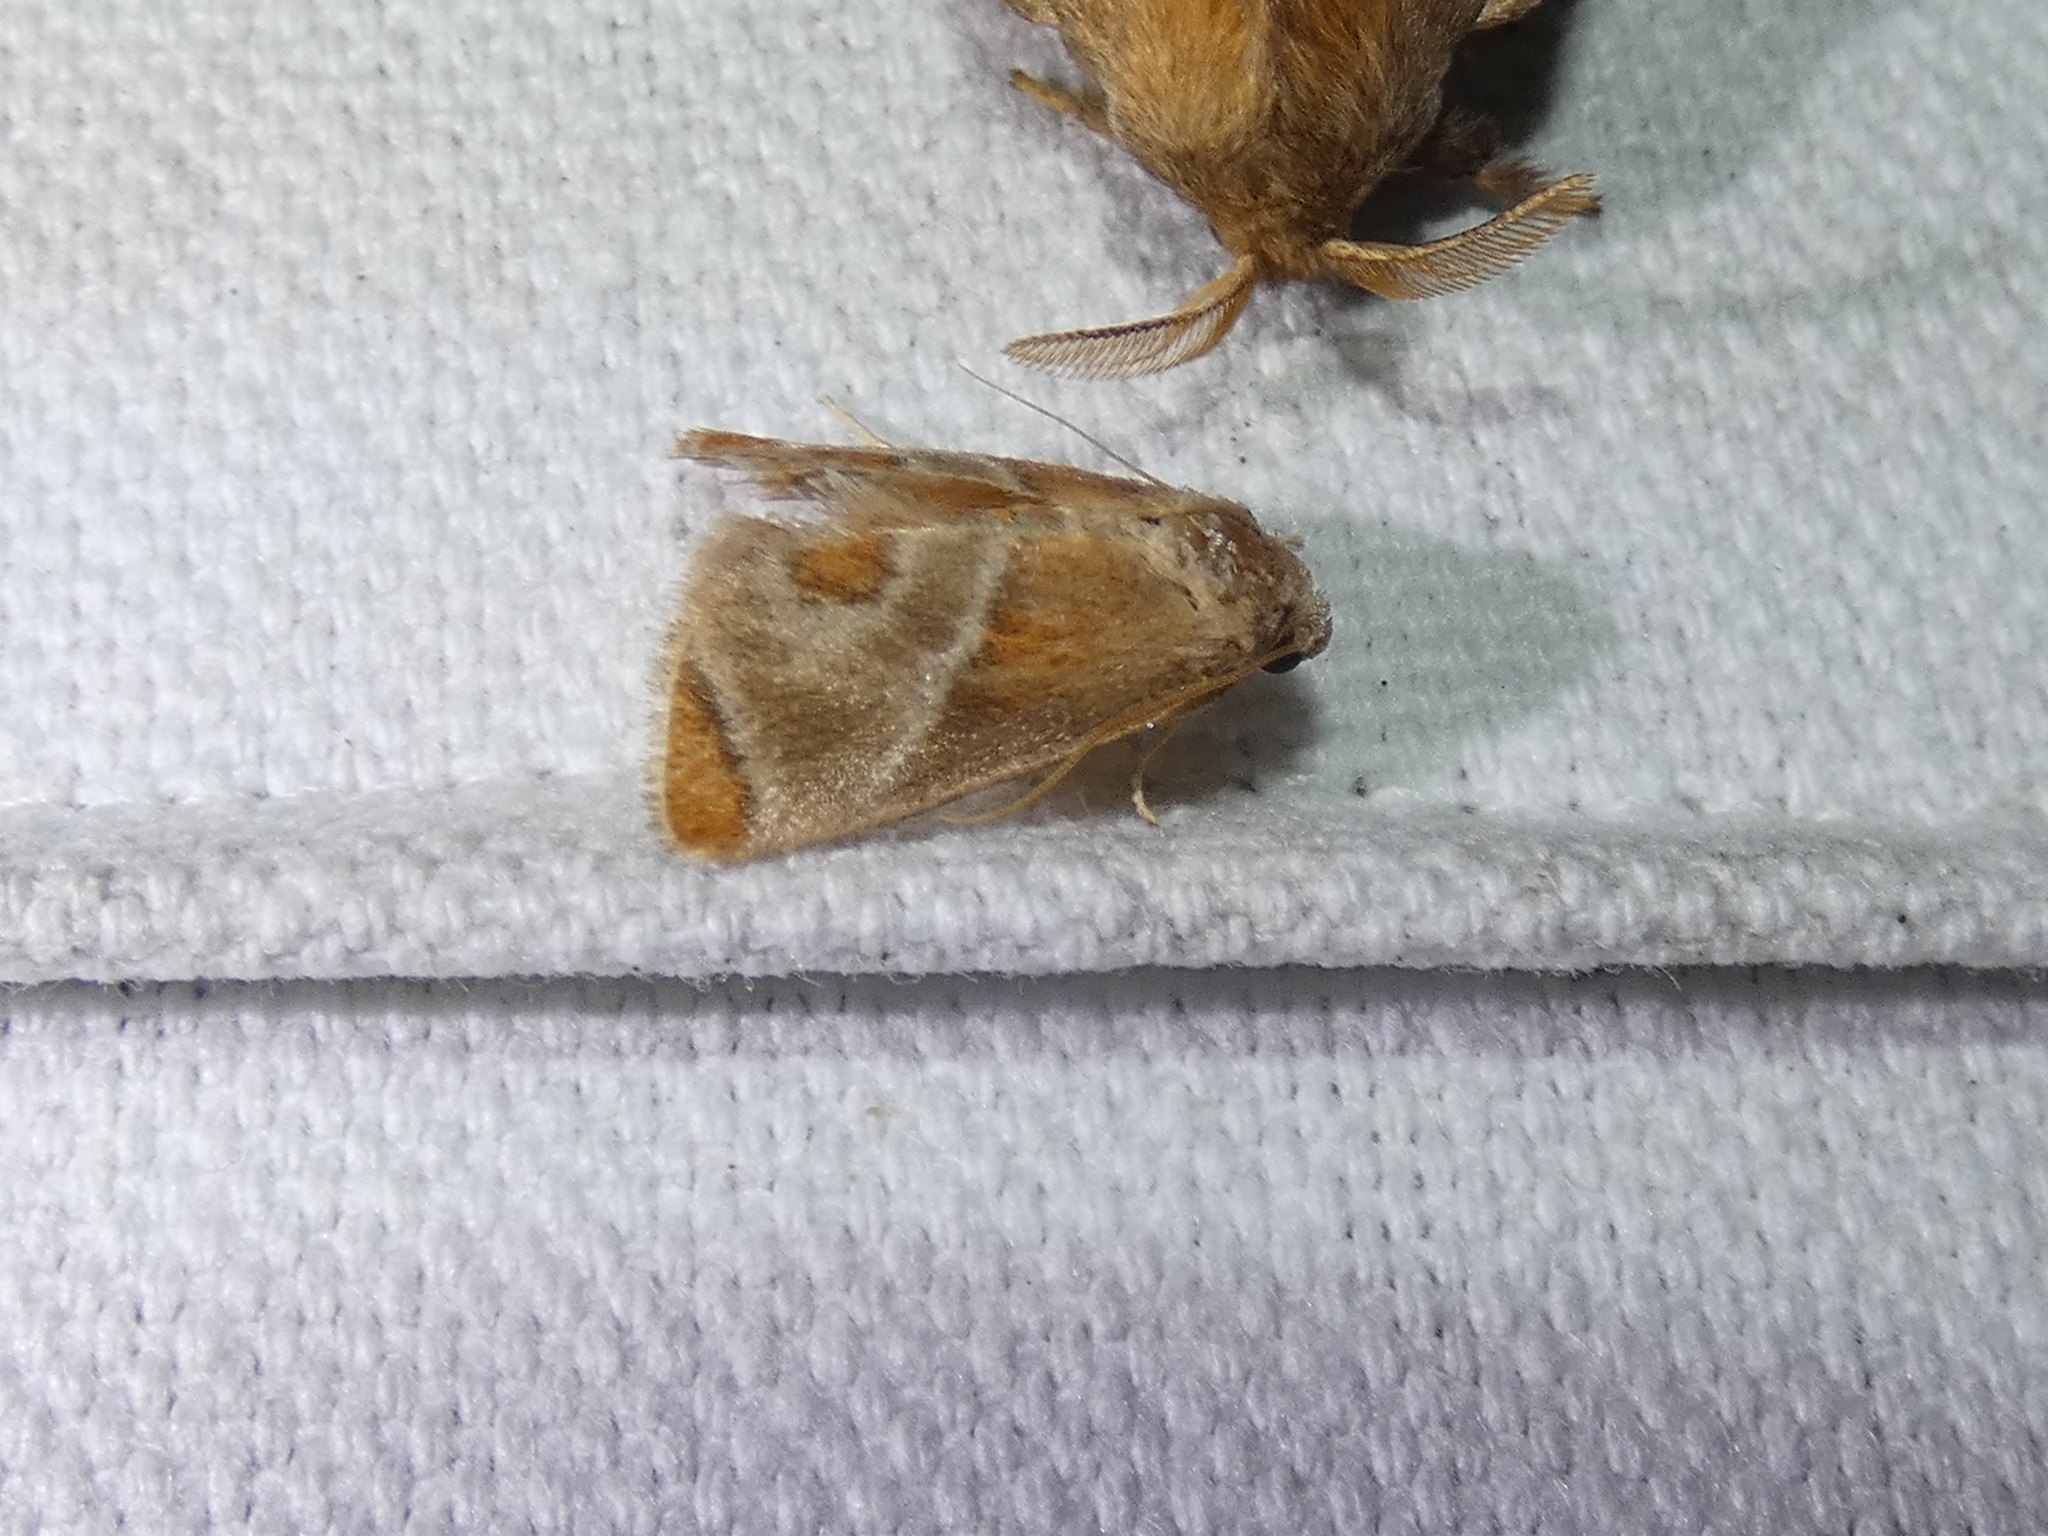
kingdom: Animalia
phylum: Arthropoda
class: Insecta
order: Lepidoptera
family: Limacodidae
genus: Apoda
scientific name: Apoda biguttata
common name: Shagreened slug moth
